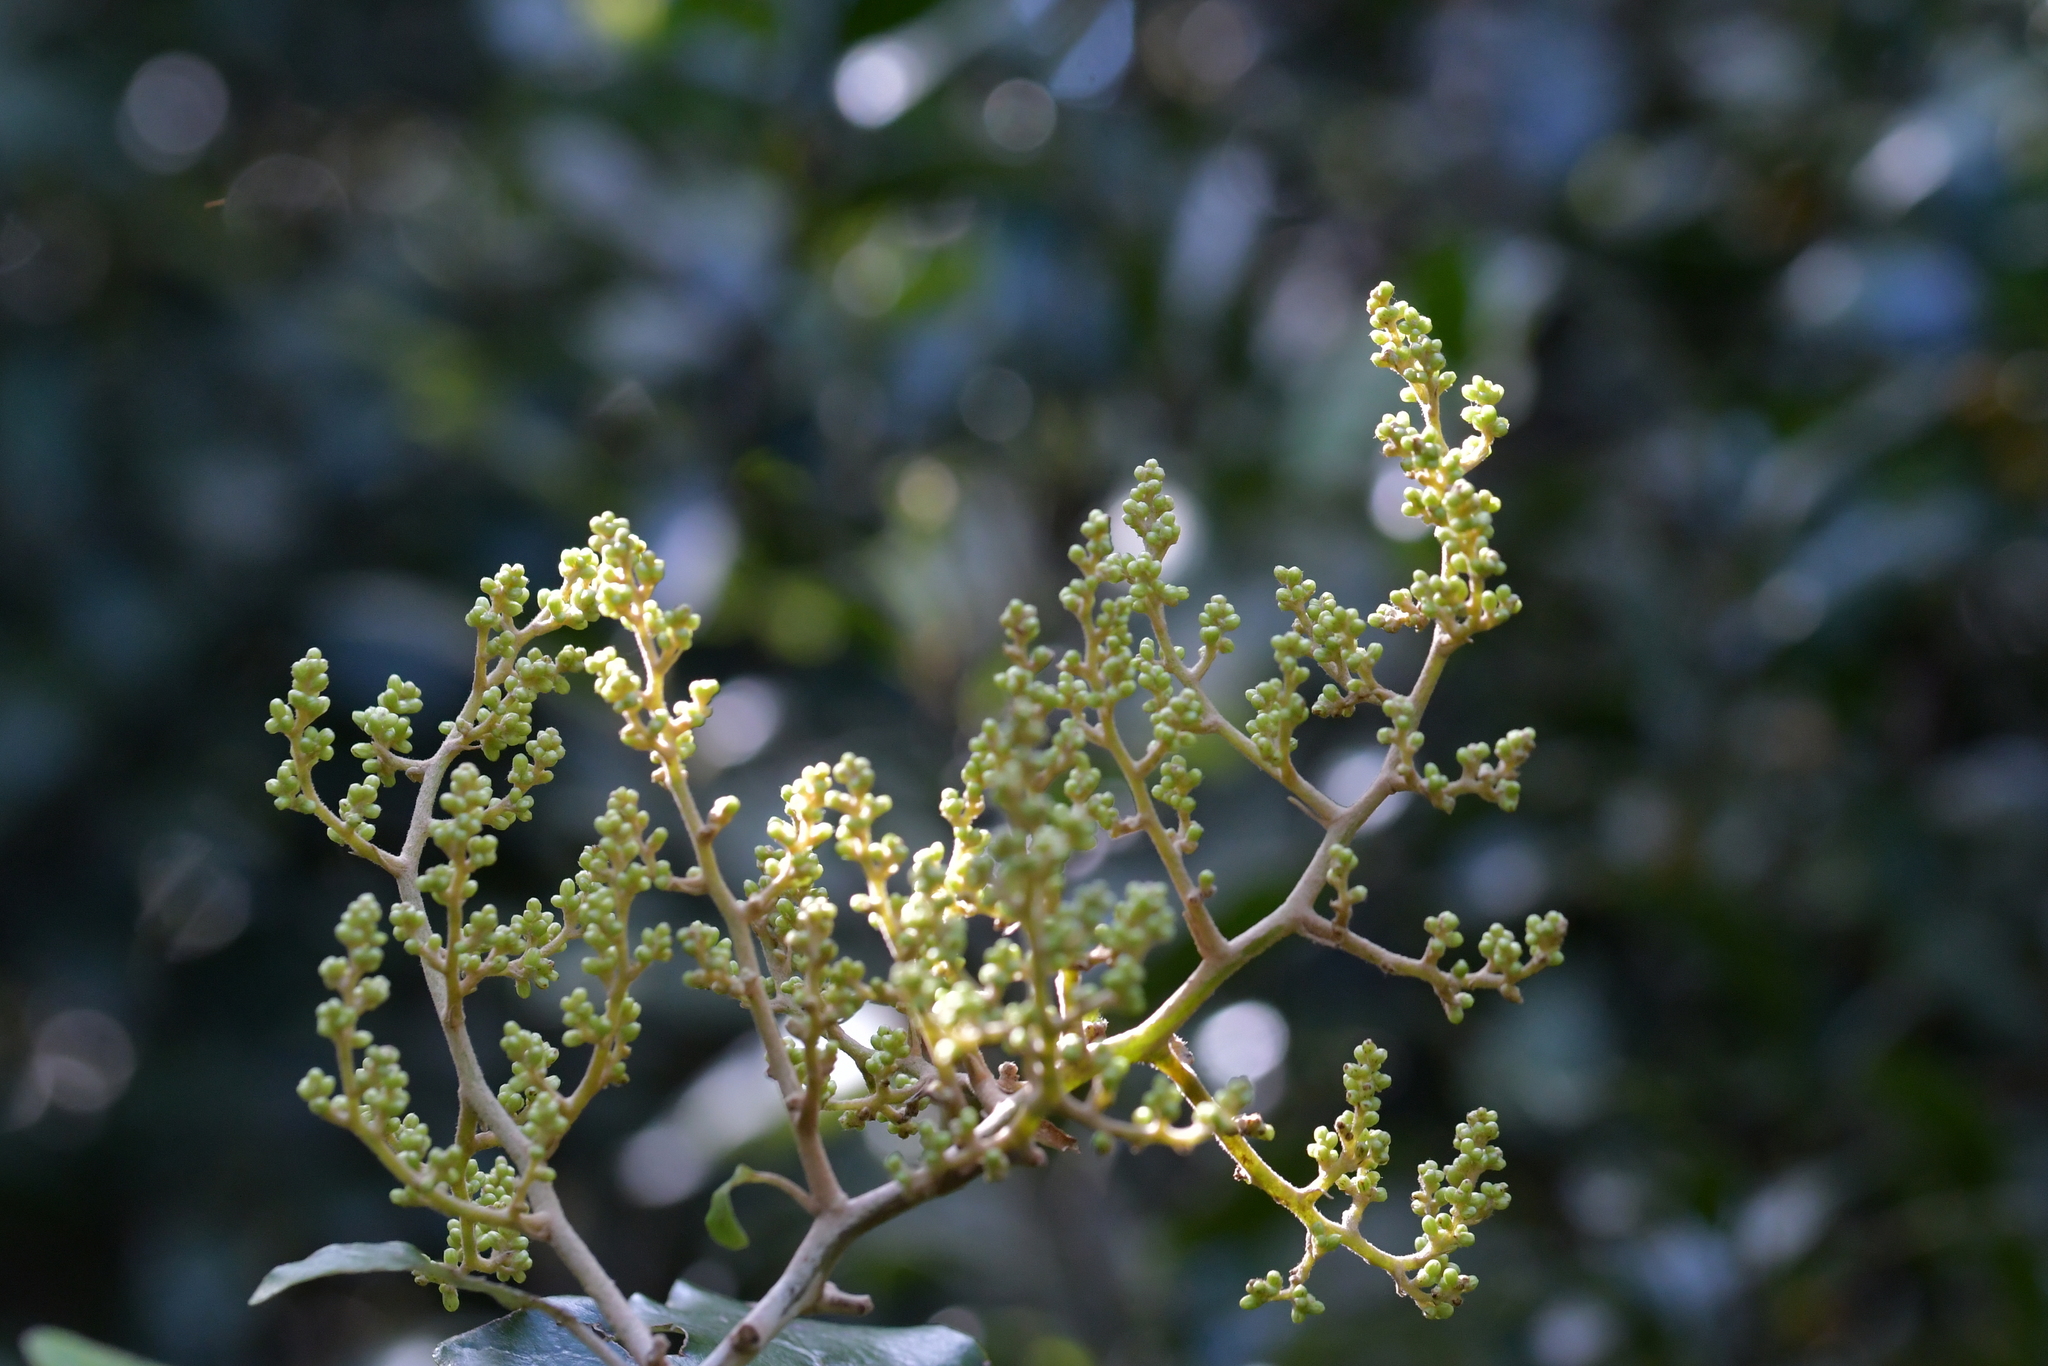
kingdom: Plantae
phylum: Tracheophyta
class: Magnoliopsida
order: Asterales
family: Asteraceae
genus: Brachyglottis
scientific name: Brachyglottis repanda
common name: Hedge ragwort
